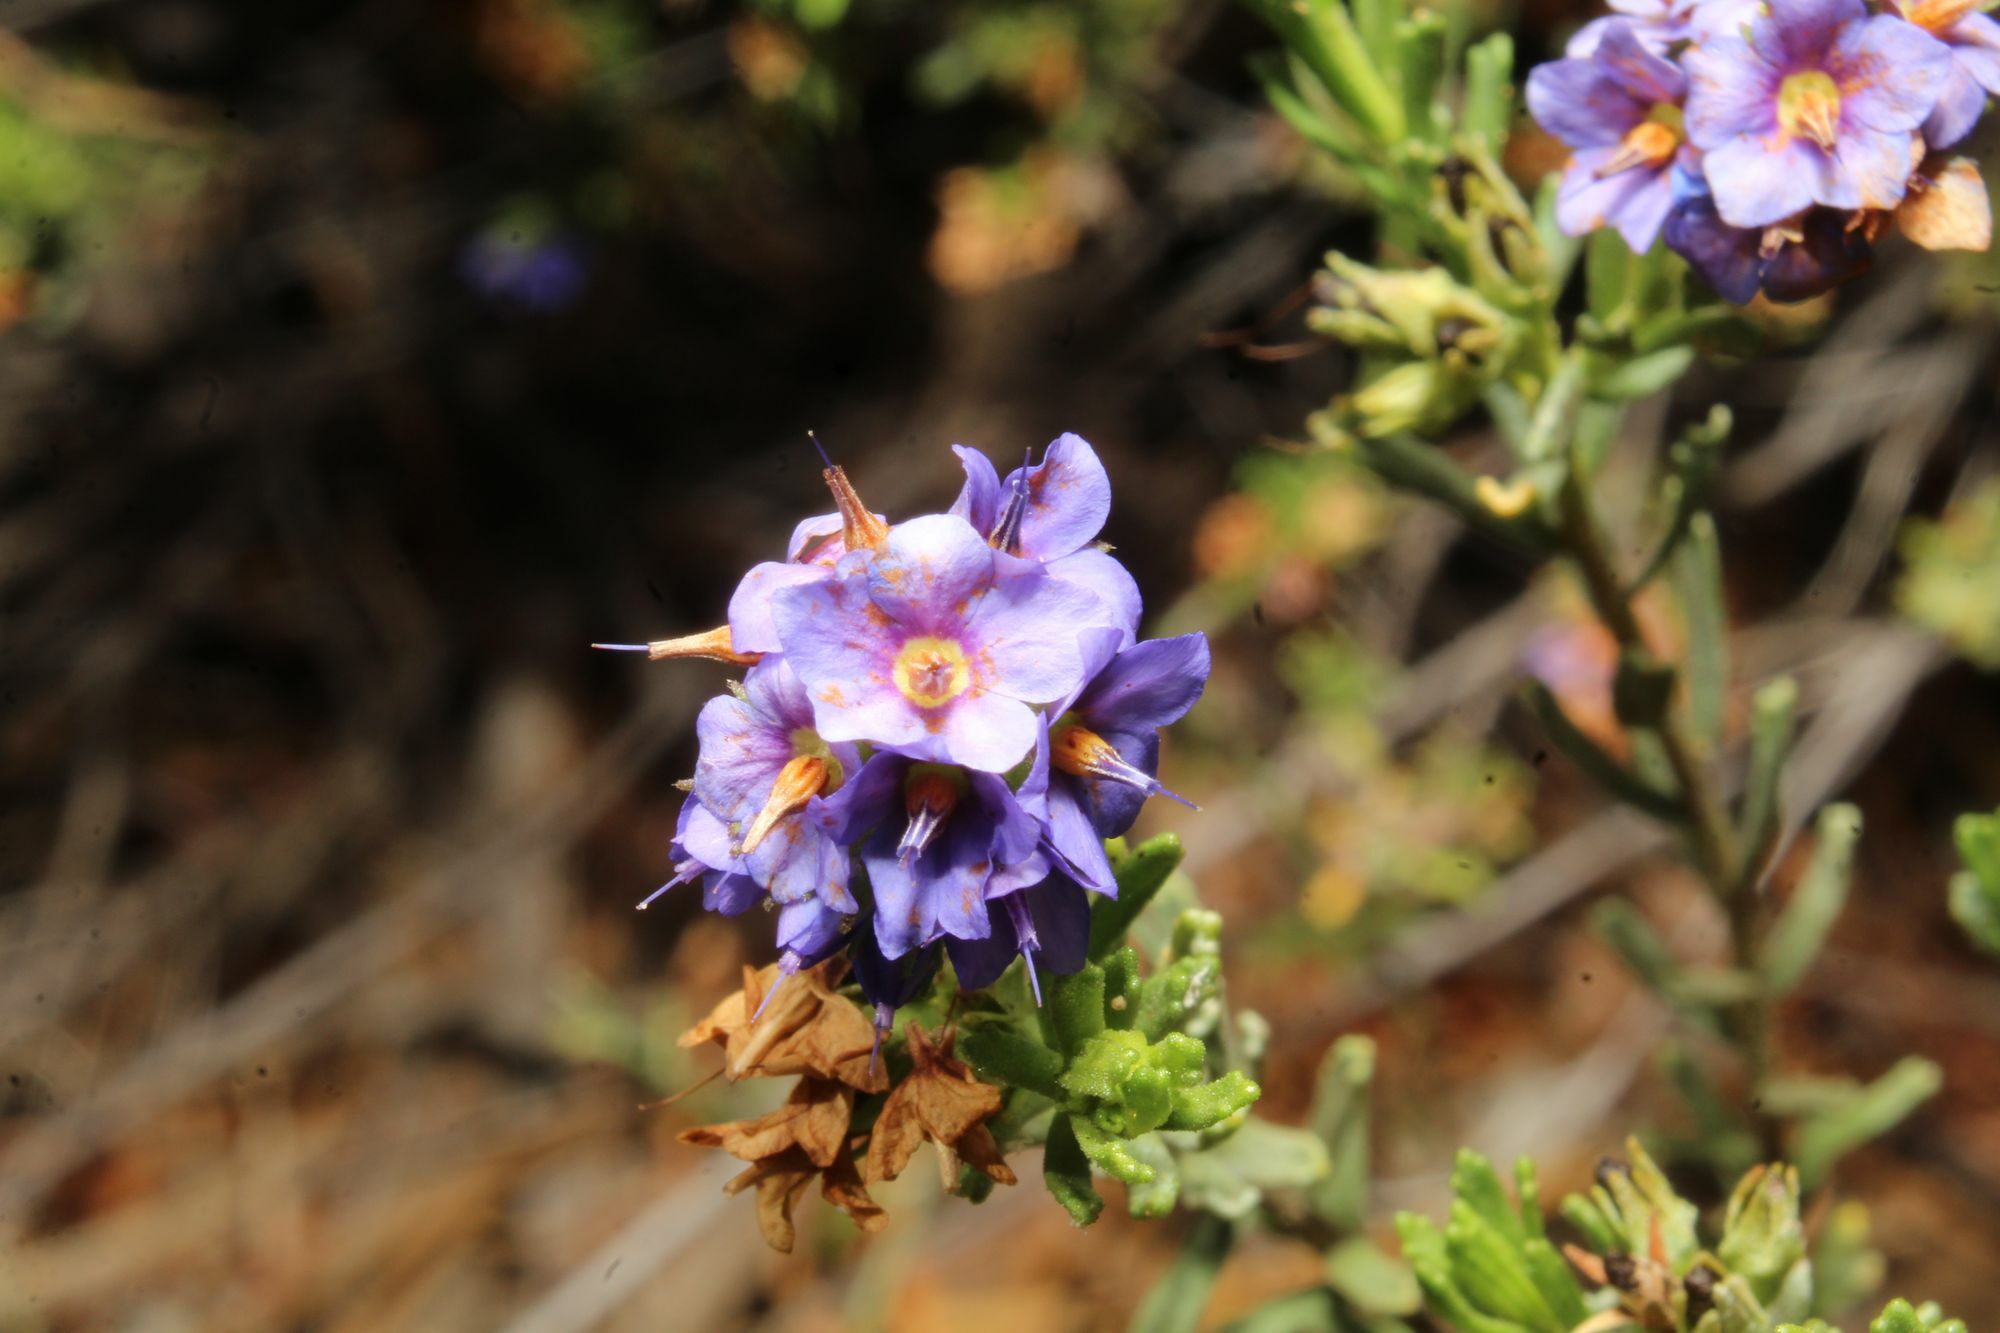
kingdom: Plantae
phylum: Tracheophyta
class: Magnoliopsida
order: Boraginales
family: Ehretiaceae
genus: Halgania
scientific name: Halgania cyanea
